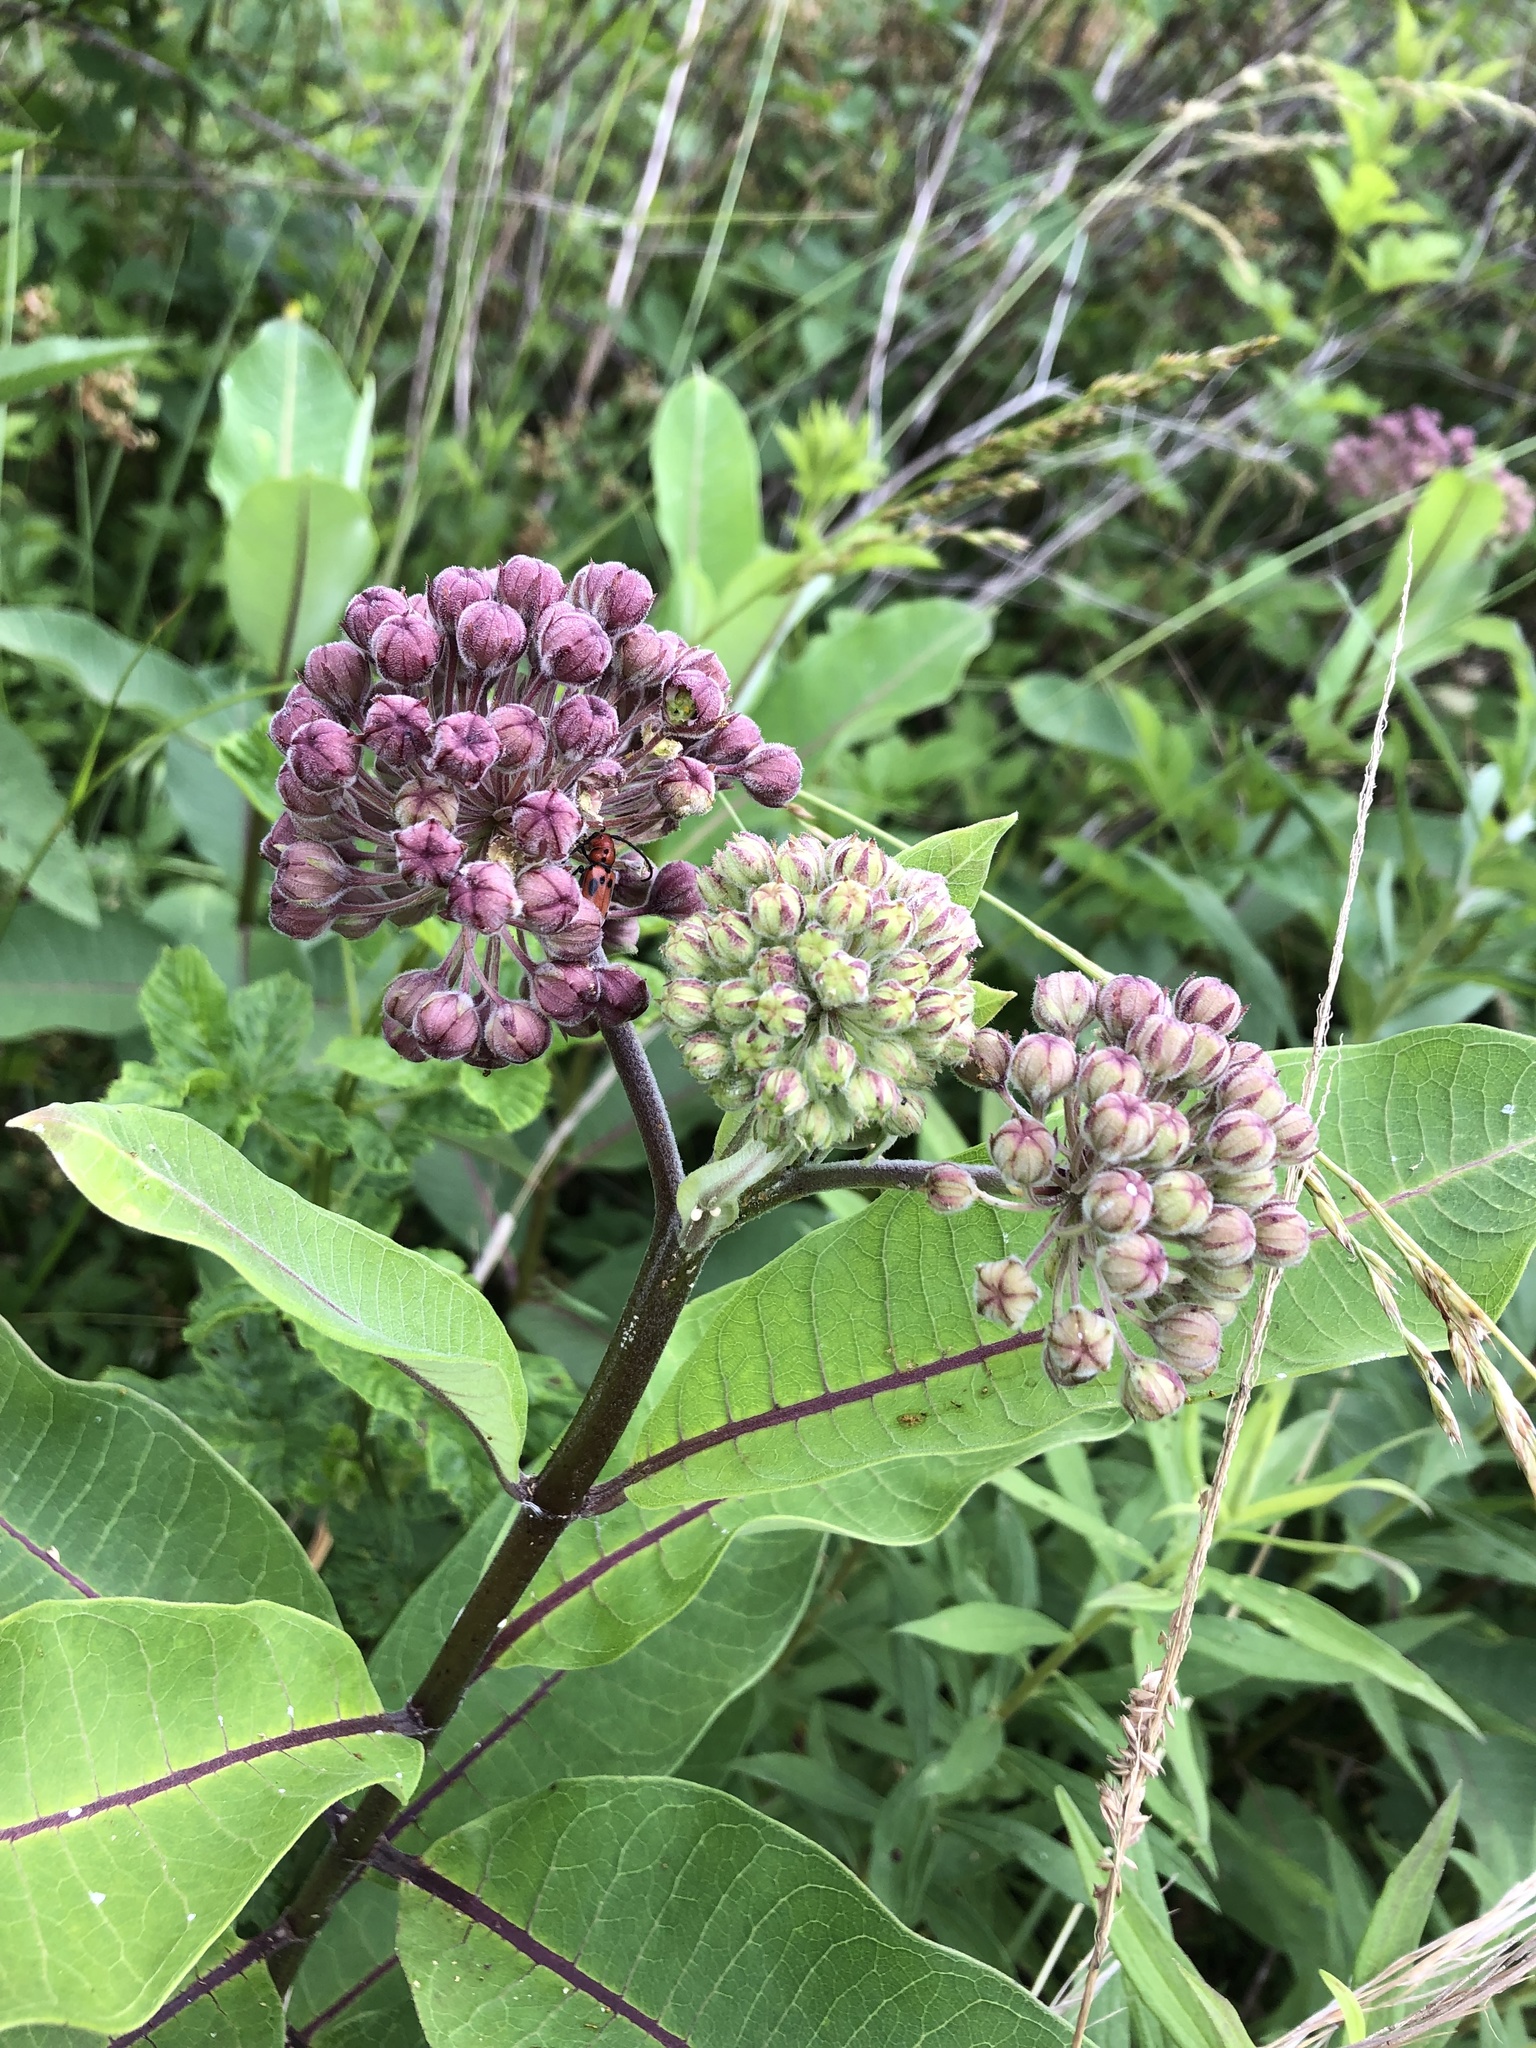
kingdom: Plantae
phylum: Tracheophyta
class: Magnoliopsida
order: Gentianales
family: Apocynaceae
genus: Asclepias
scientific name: Asclepias syriaca
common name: Common milkweed
